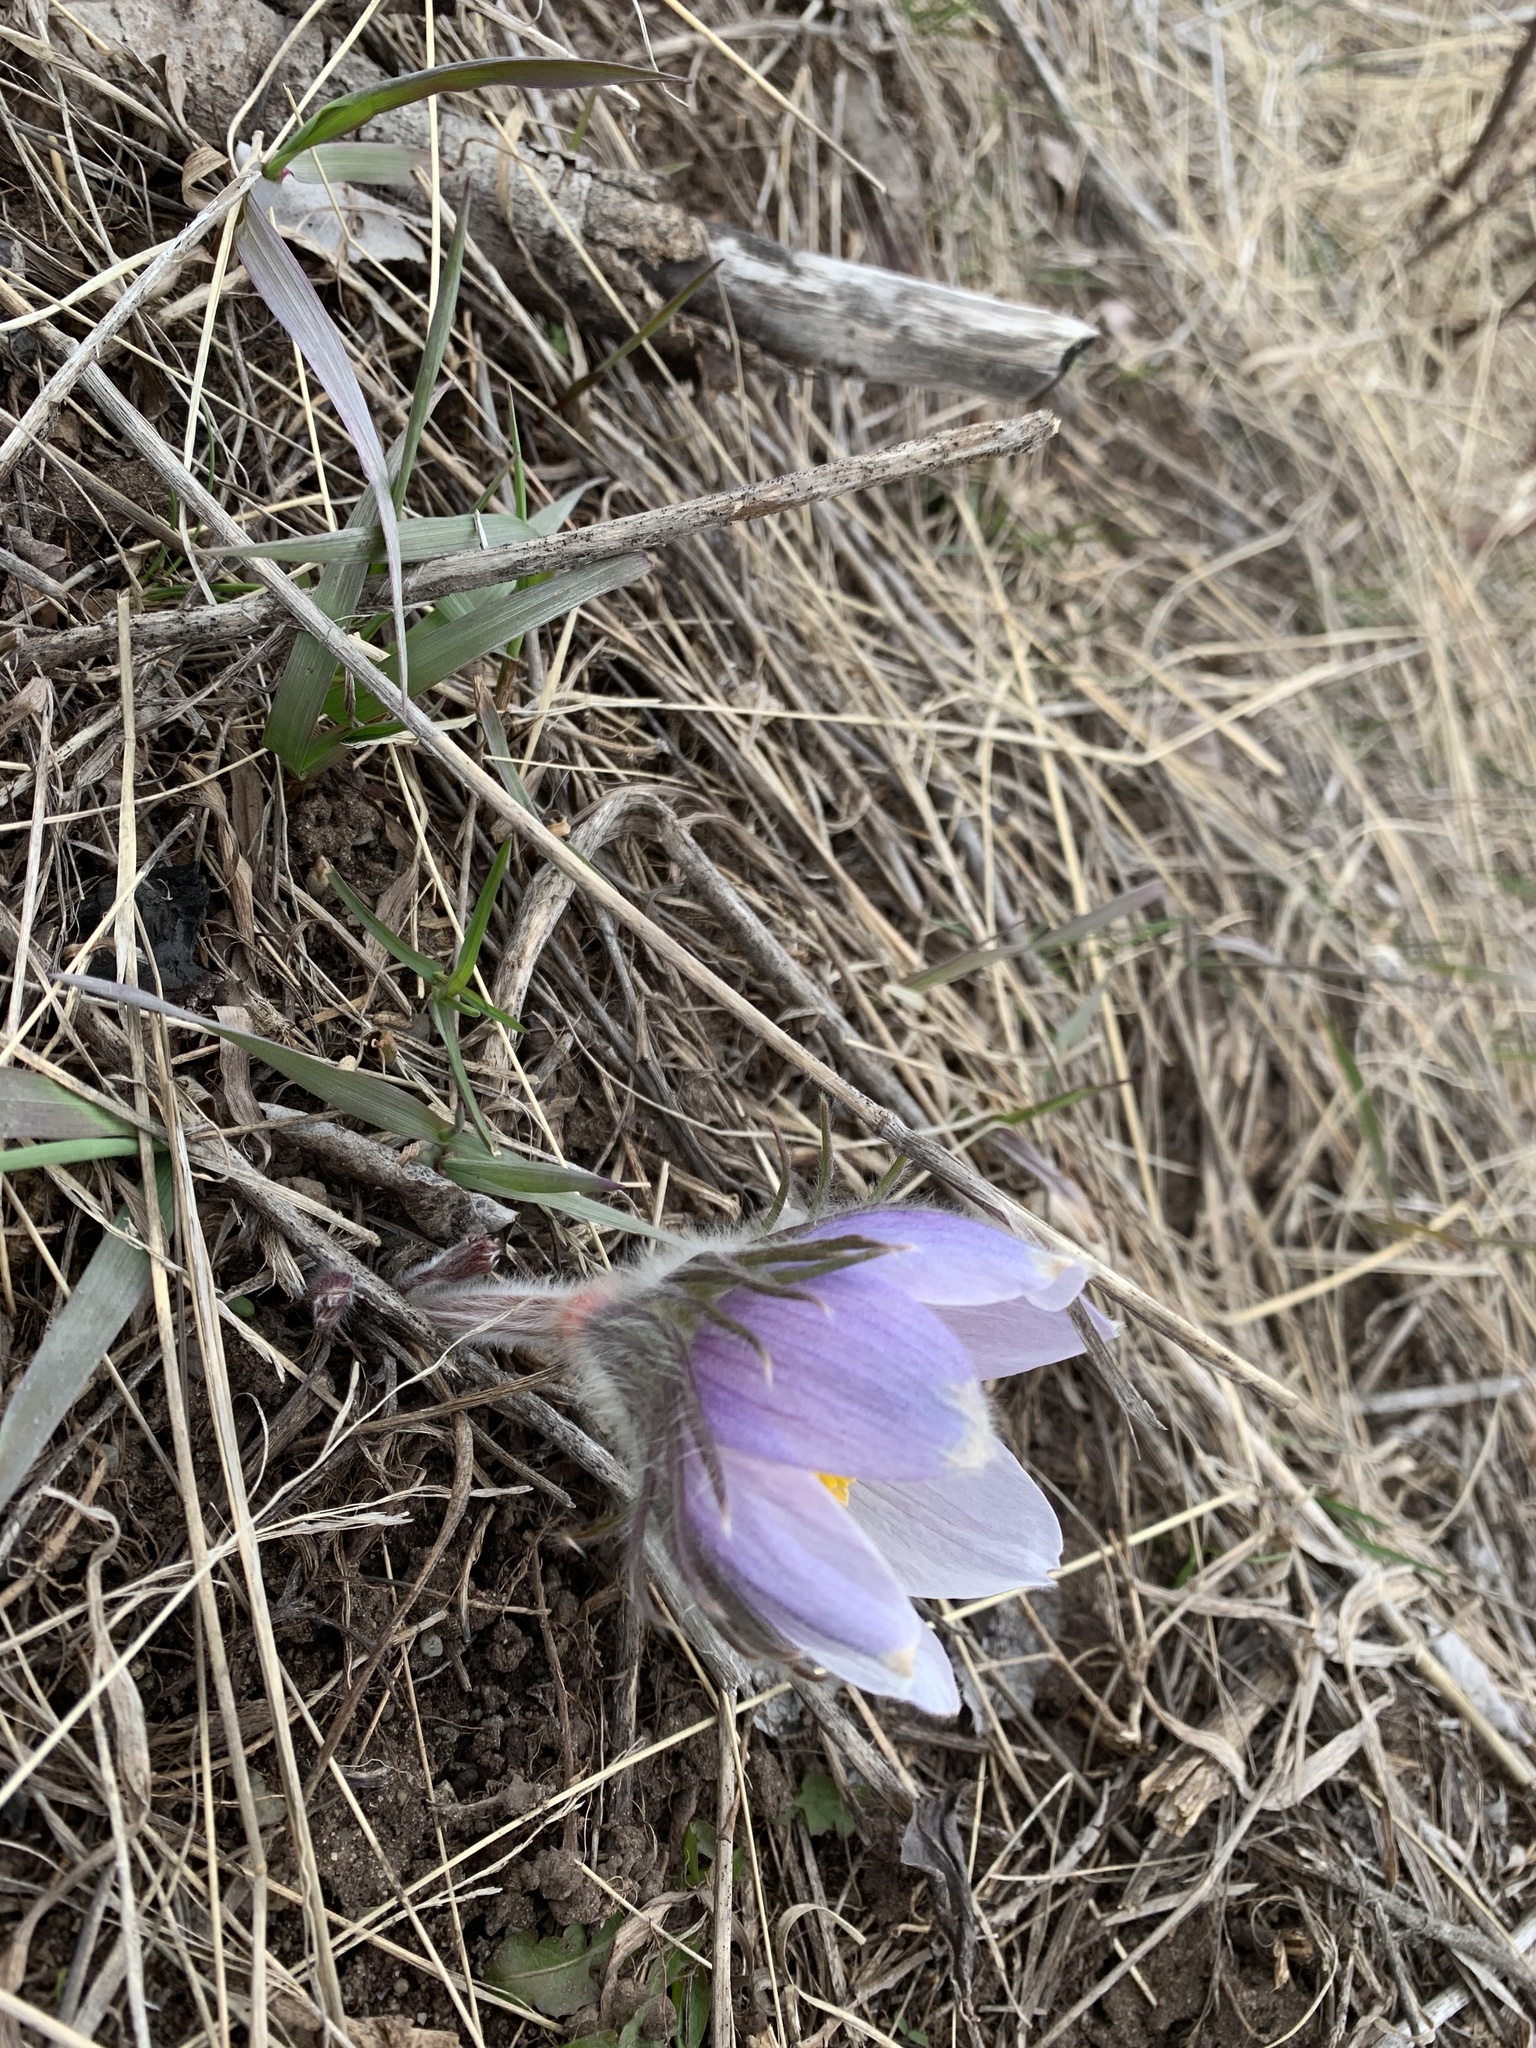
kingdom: Plantae
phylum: Tracheophyta
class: Magnoliopsida
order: Ranunculales
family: Ranunculaceae
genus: Pulsatilla
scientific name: Pulsatilla nuttalliana
